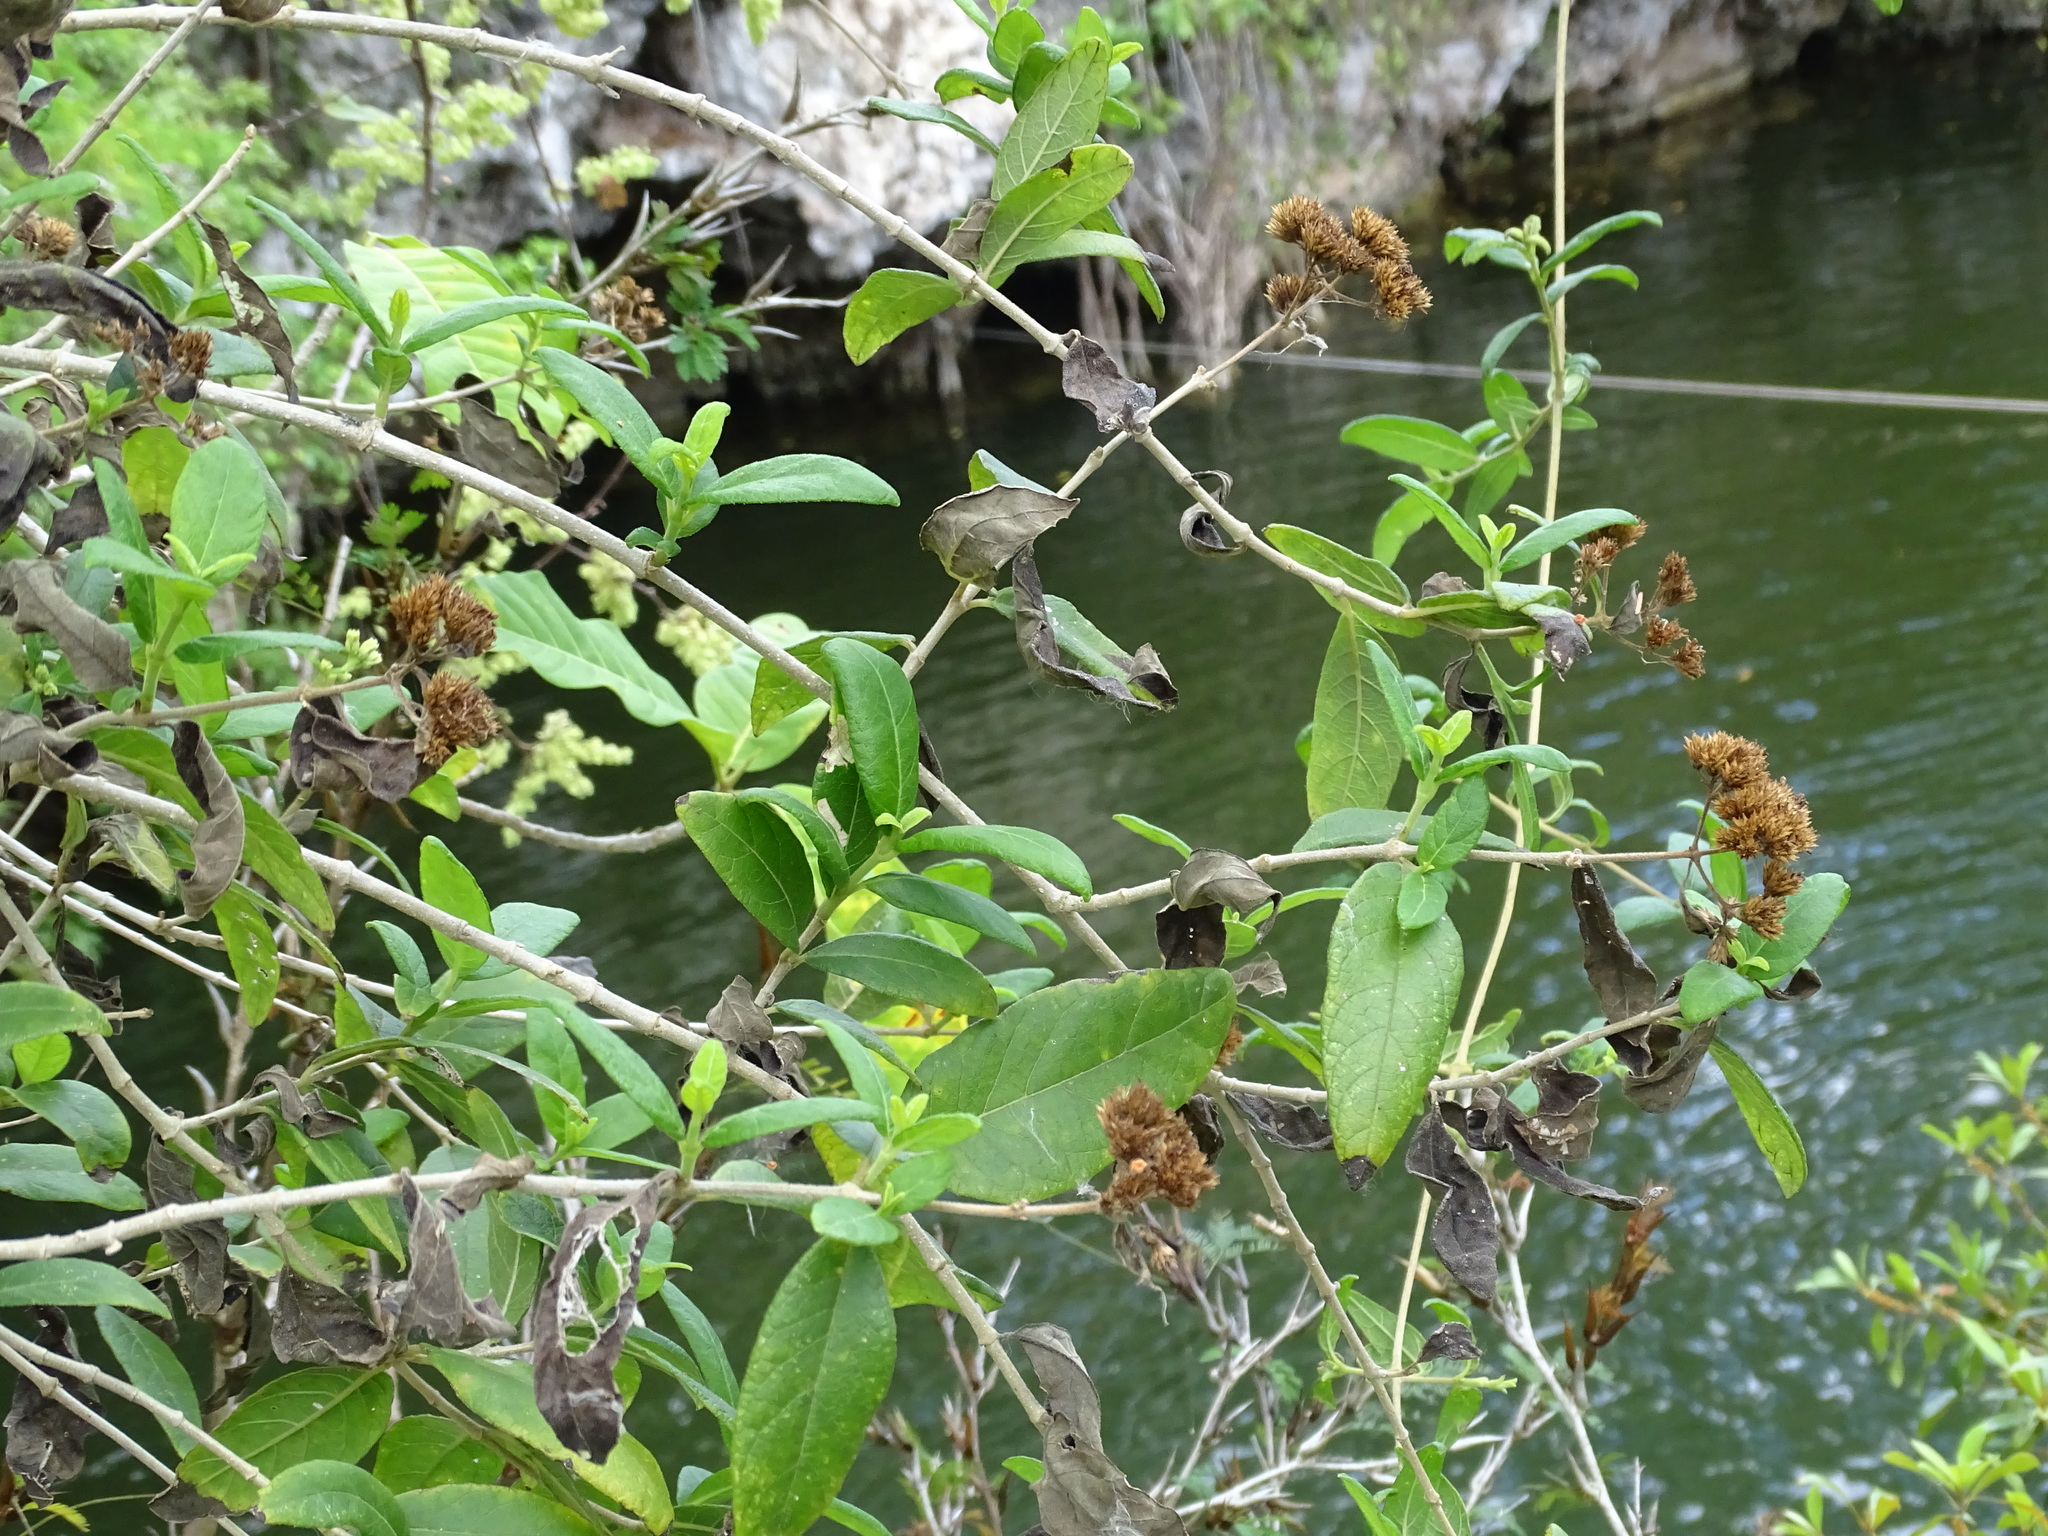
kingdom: Plantae
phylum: Tracheophyta
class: Magnoliopsida
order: Asterales
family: Asteraceae
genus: Otopappus
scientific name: Otopappus guatemalensis
